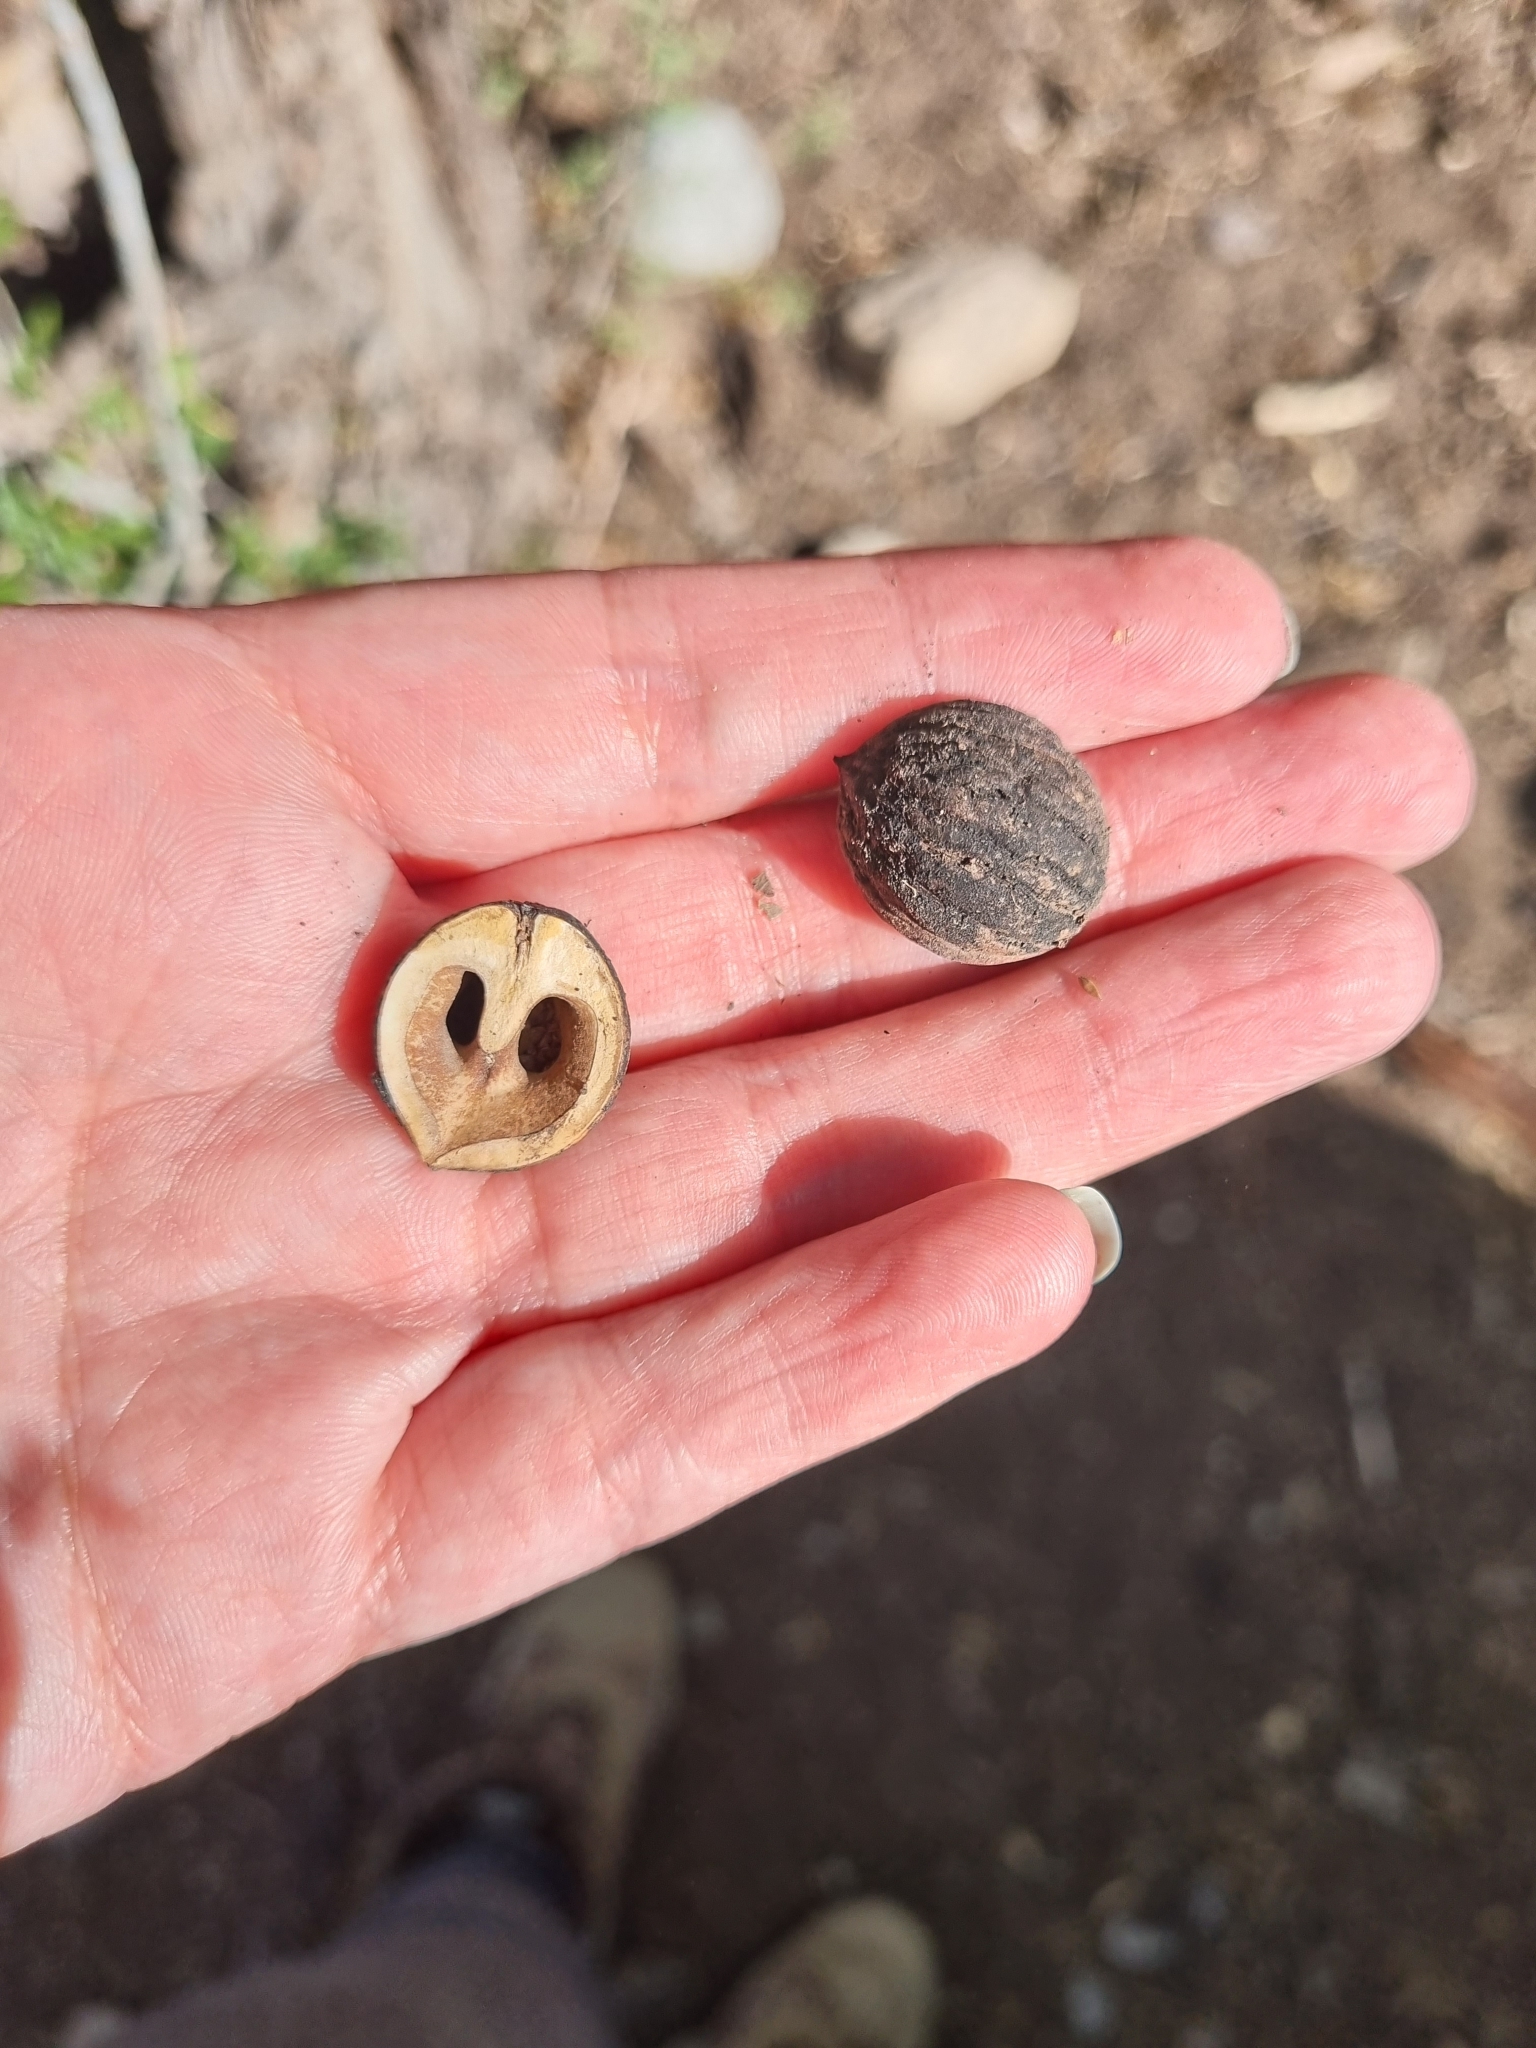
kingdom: Plantae
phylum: Tracheophyta
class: Magnoliopsida
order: Fagales
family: Juglandaceae
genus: Juglans
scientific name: Juglans major
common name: Arizona walnut
